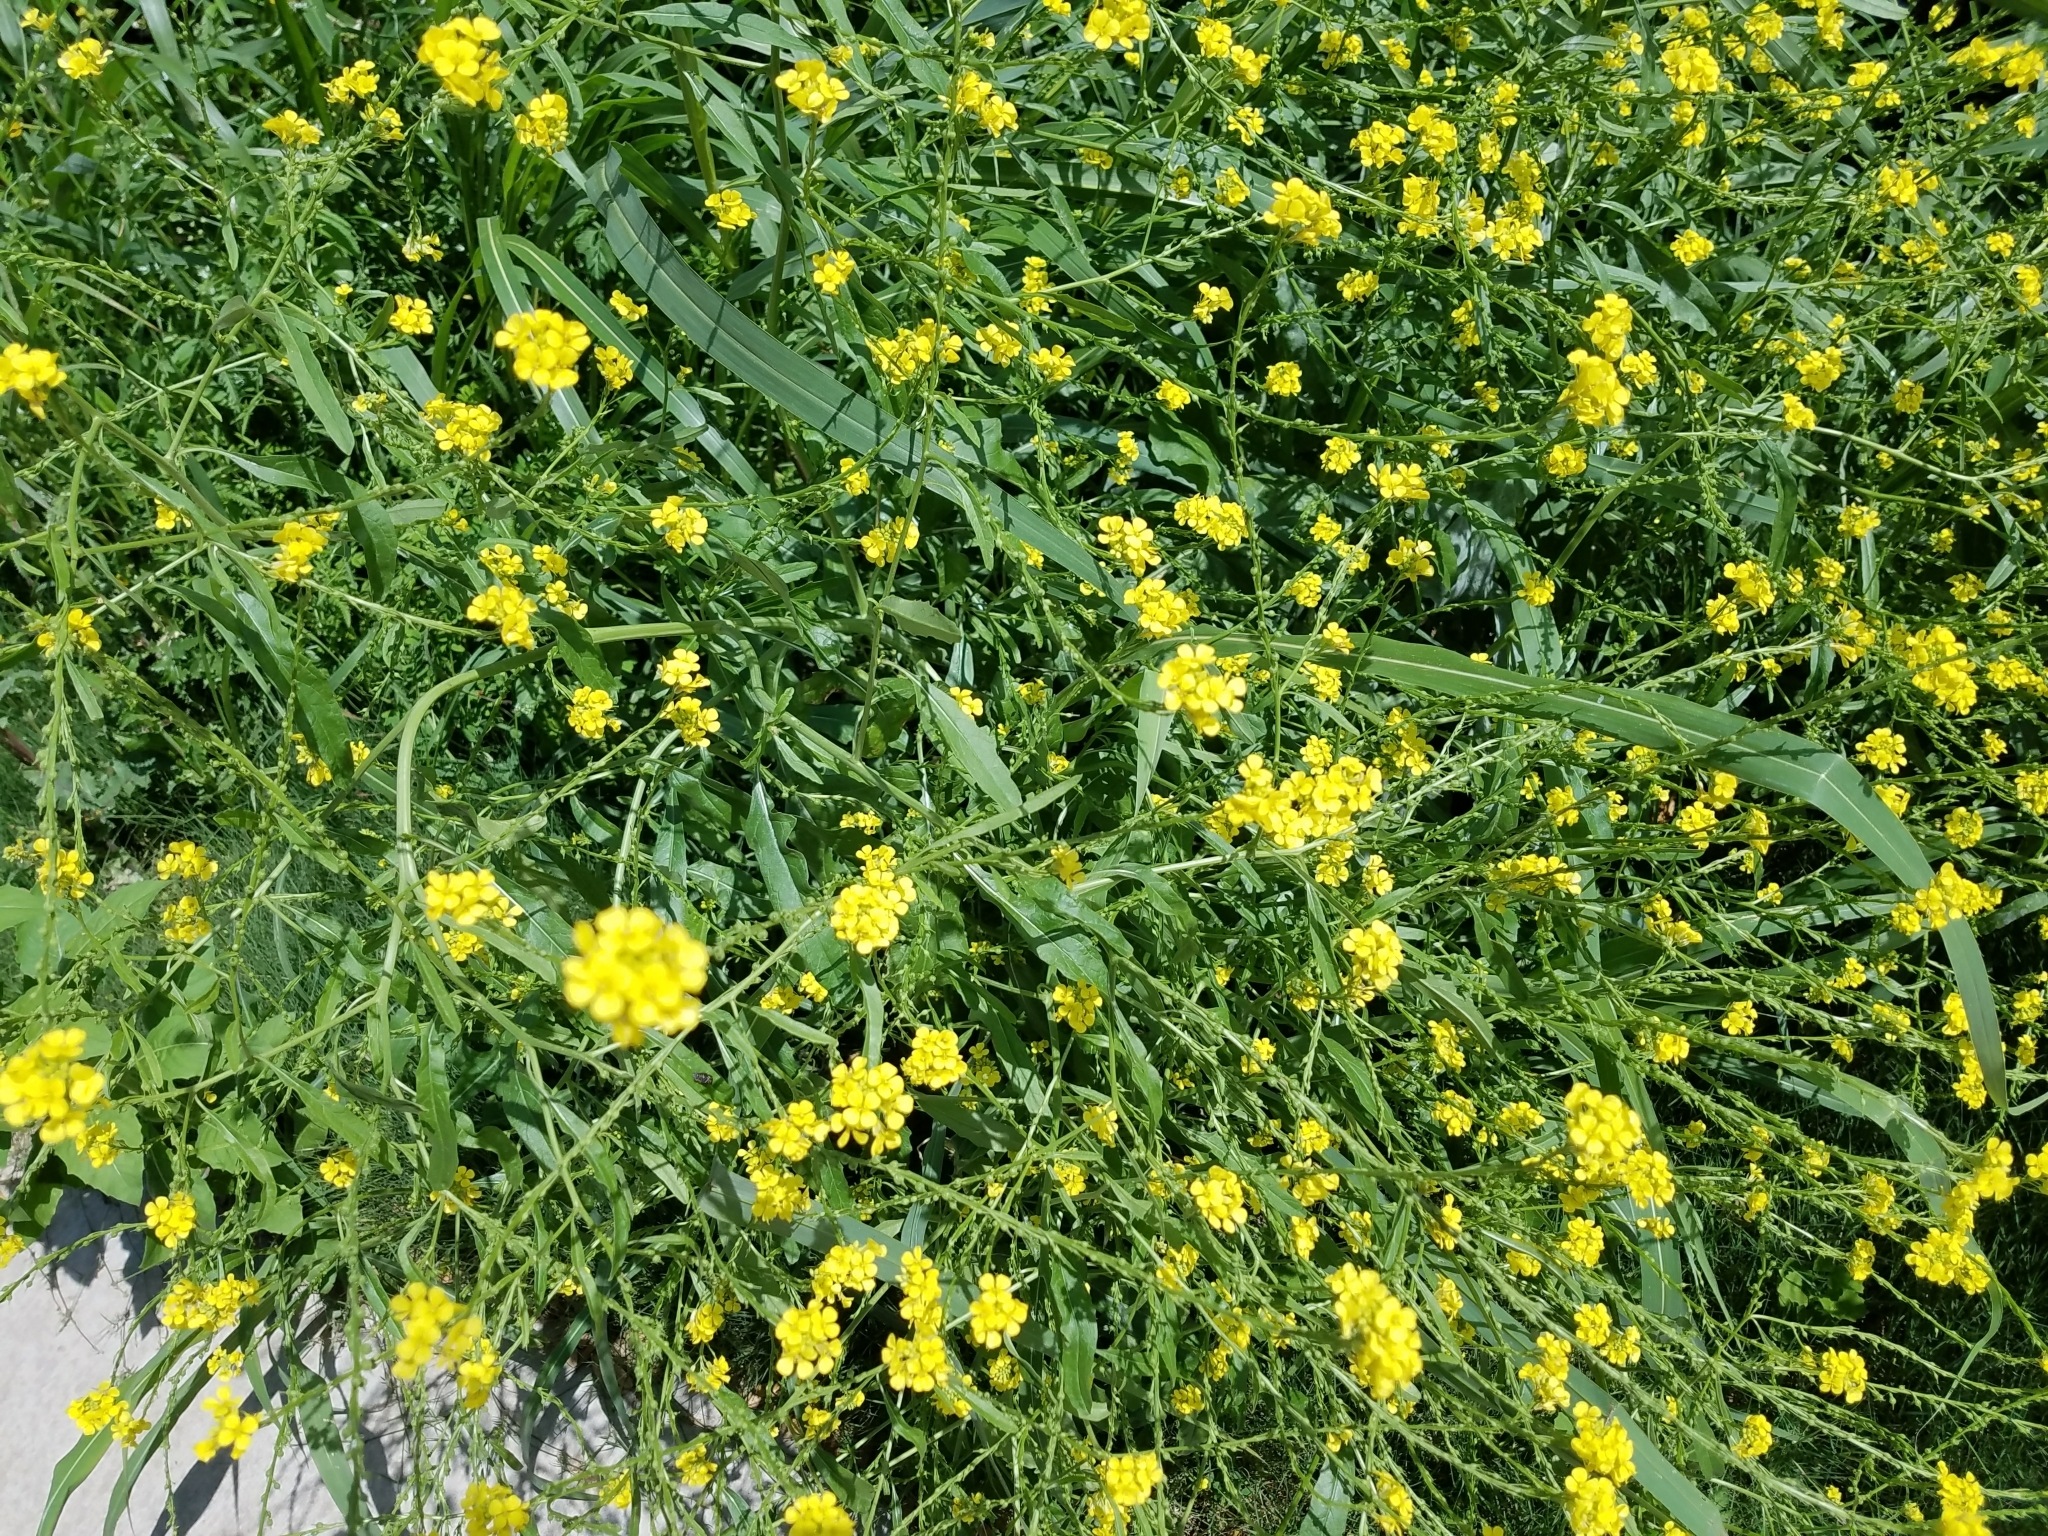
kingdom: Plantae
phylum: Tracheophyta
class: Magnoliopsida
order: Brassicales
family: Brassicaceae
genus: Rapistrum
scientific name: Rapistrum rugosum
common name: Annual bastardcabbage
